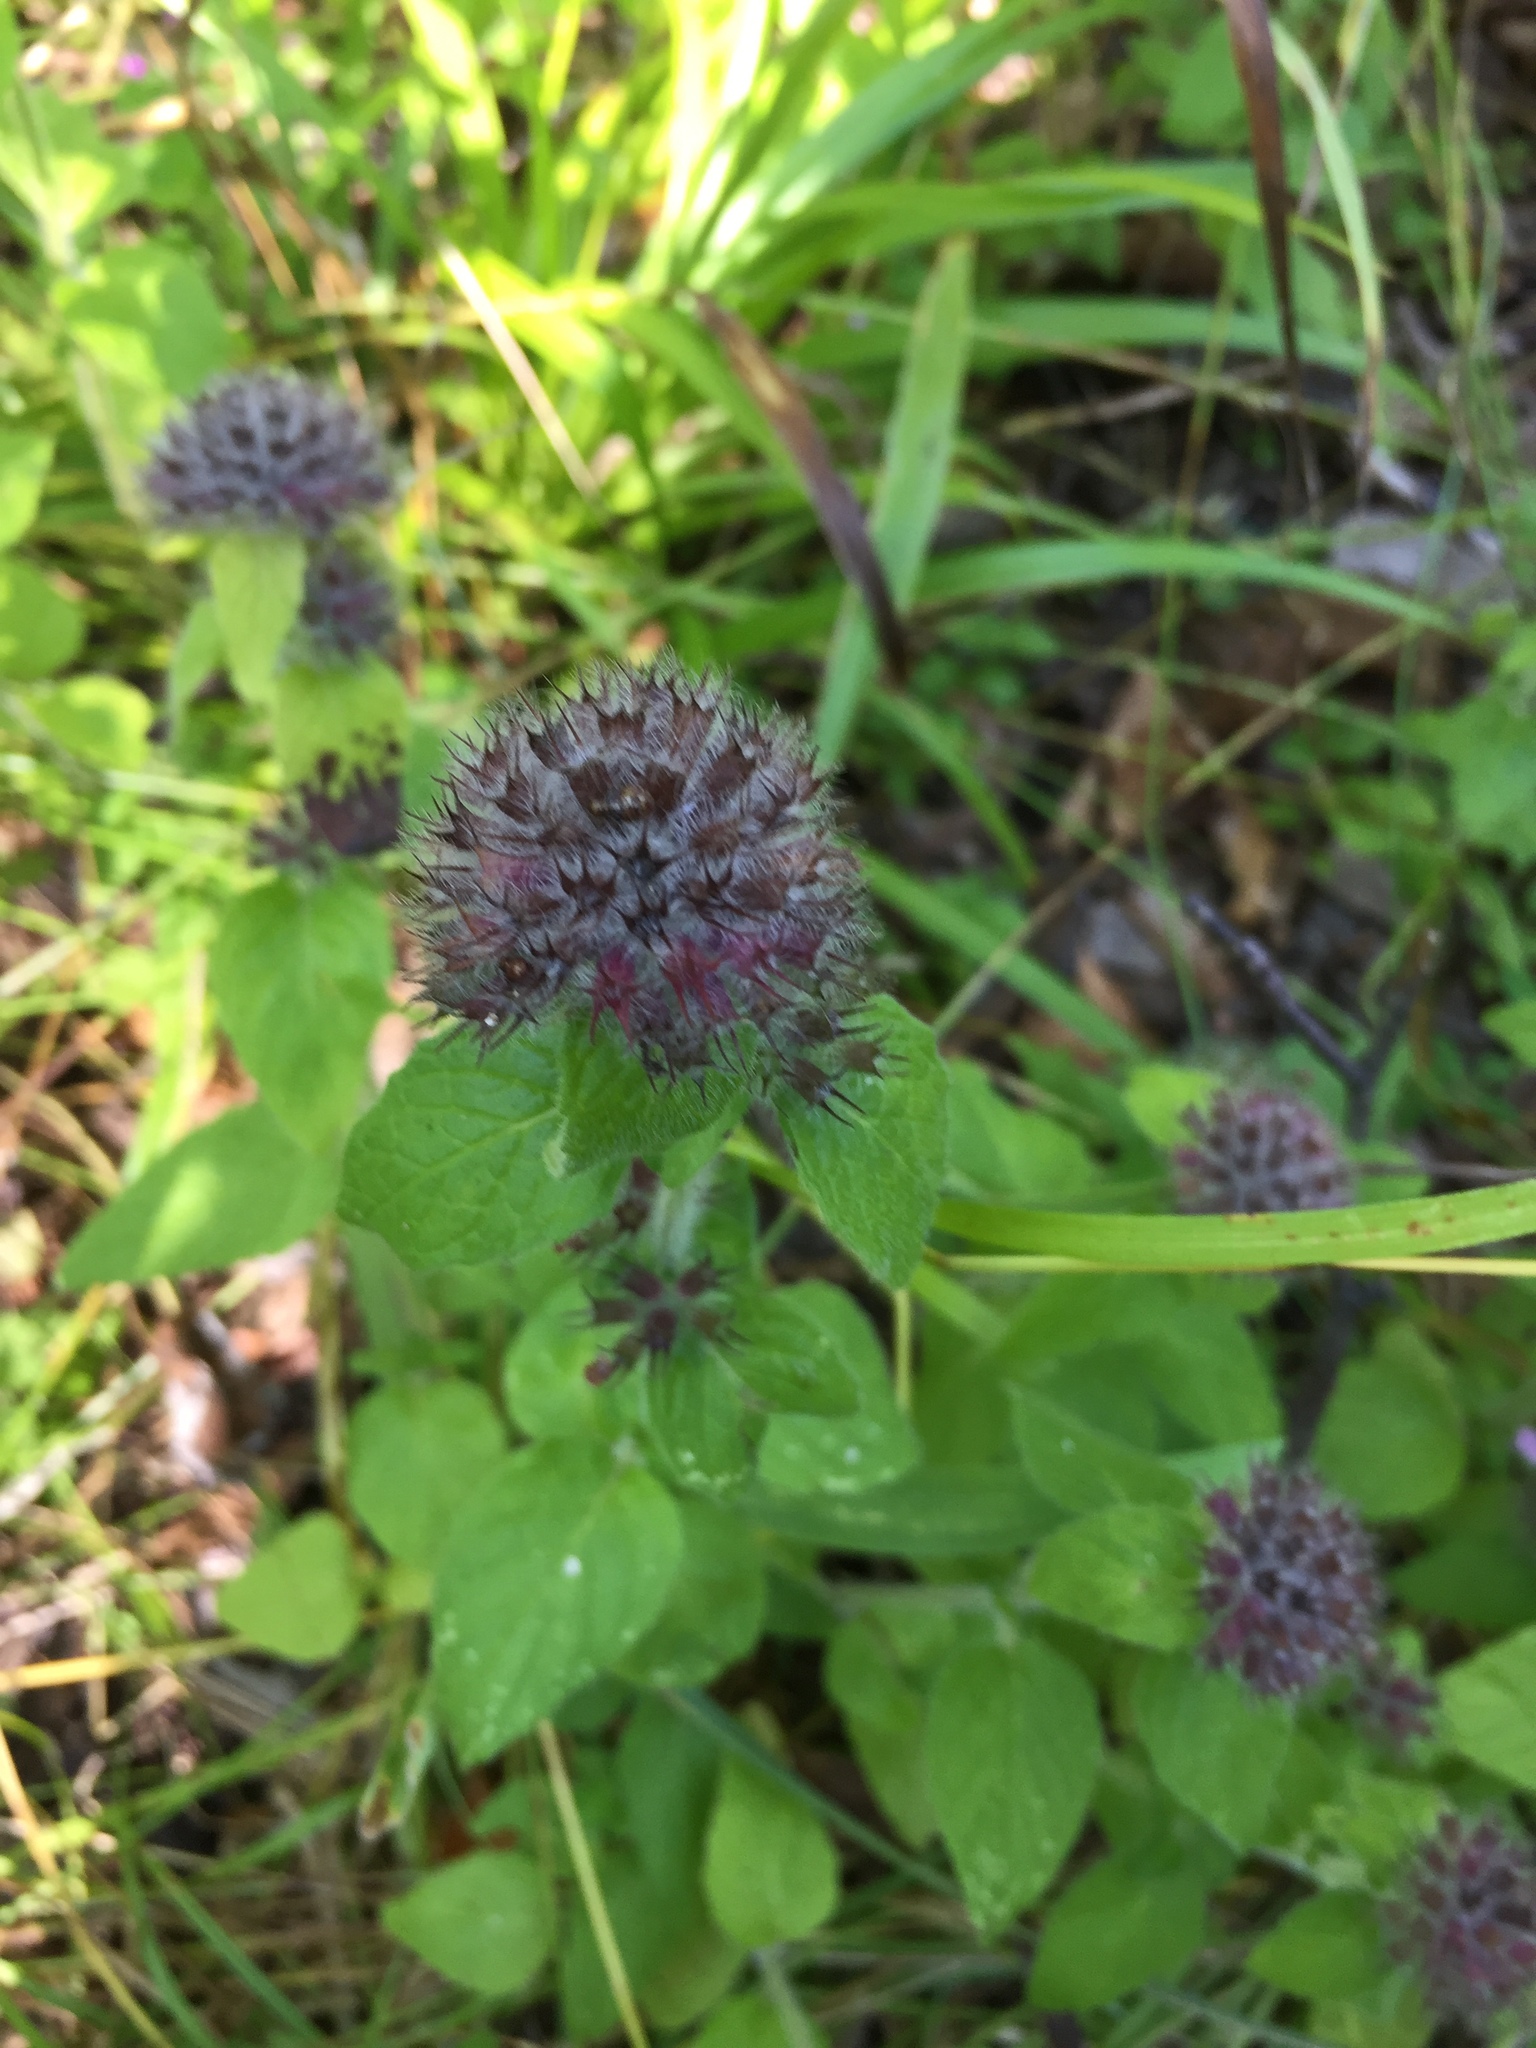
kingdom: Plantae
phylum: Tracheophyta
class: Magnoliopsida
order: Lamiales
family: Lamiaceae
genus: Clinopodium
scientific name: Clinopodium vulgare
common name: Wild basil
